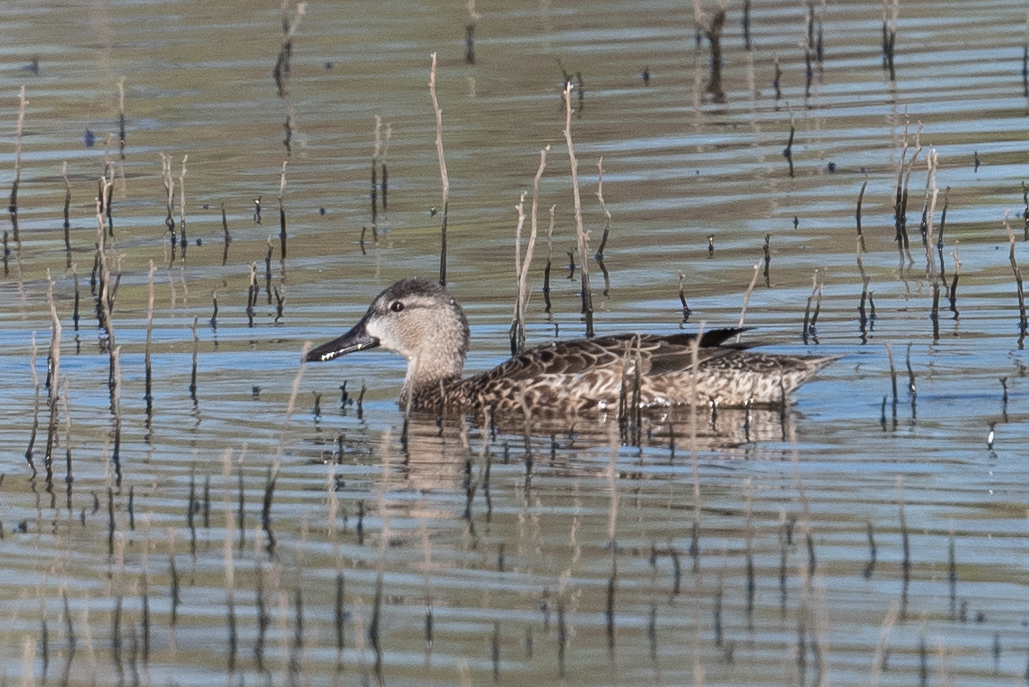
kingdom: Animalia
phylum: Chordata
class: Aves
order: Anseriformes
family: Anatidae
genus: Spatula
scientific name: Spatula discors
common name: Blue-winged teal
